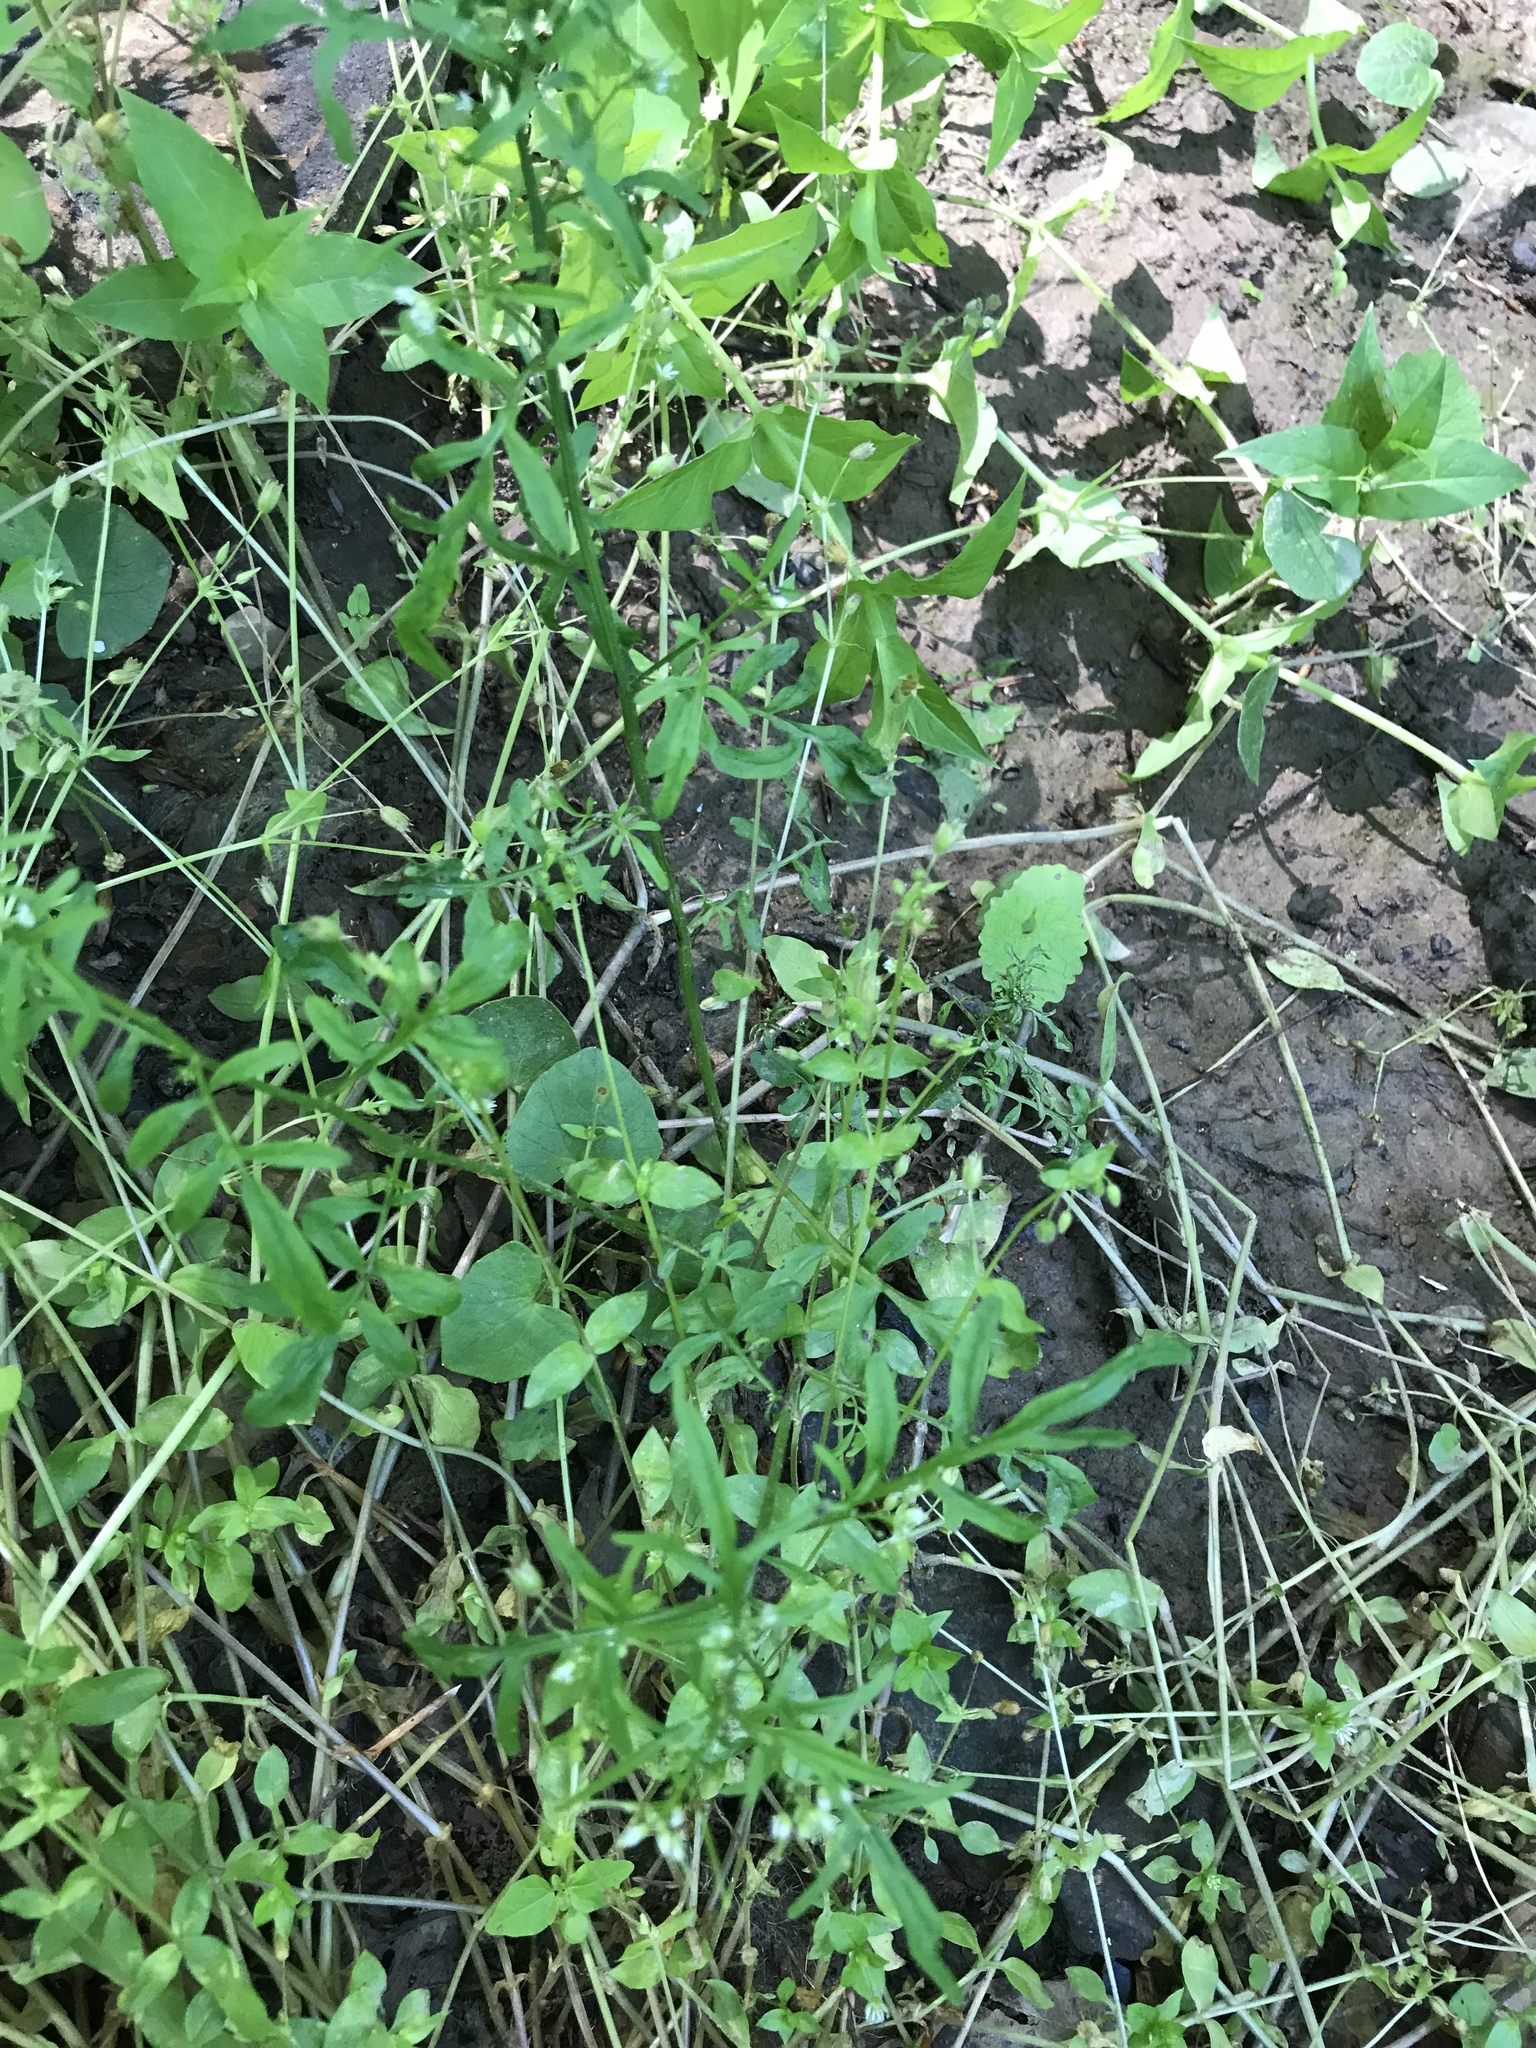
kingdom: Plantae
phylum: Tracheophyta
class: Magnoliopsida
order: Brassicales
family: Brassicaceae
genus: Cardamine
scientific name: Cardamine pensylvanica
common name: Pennsylvania bittercress
